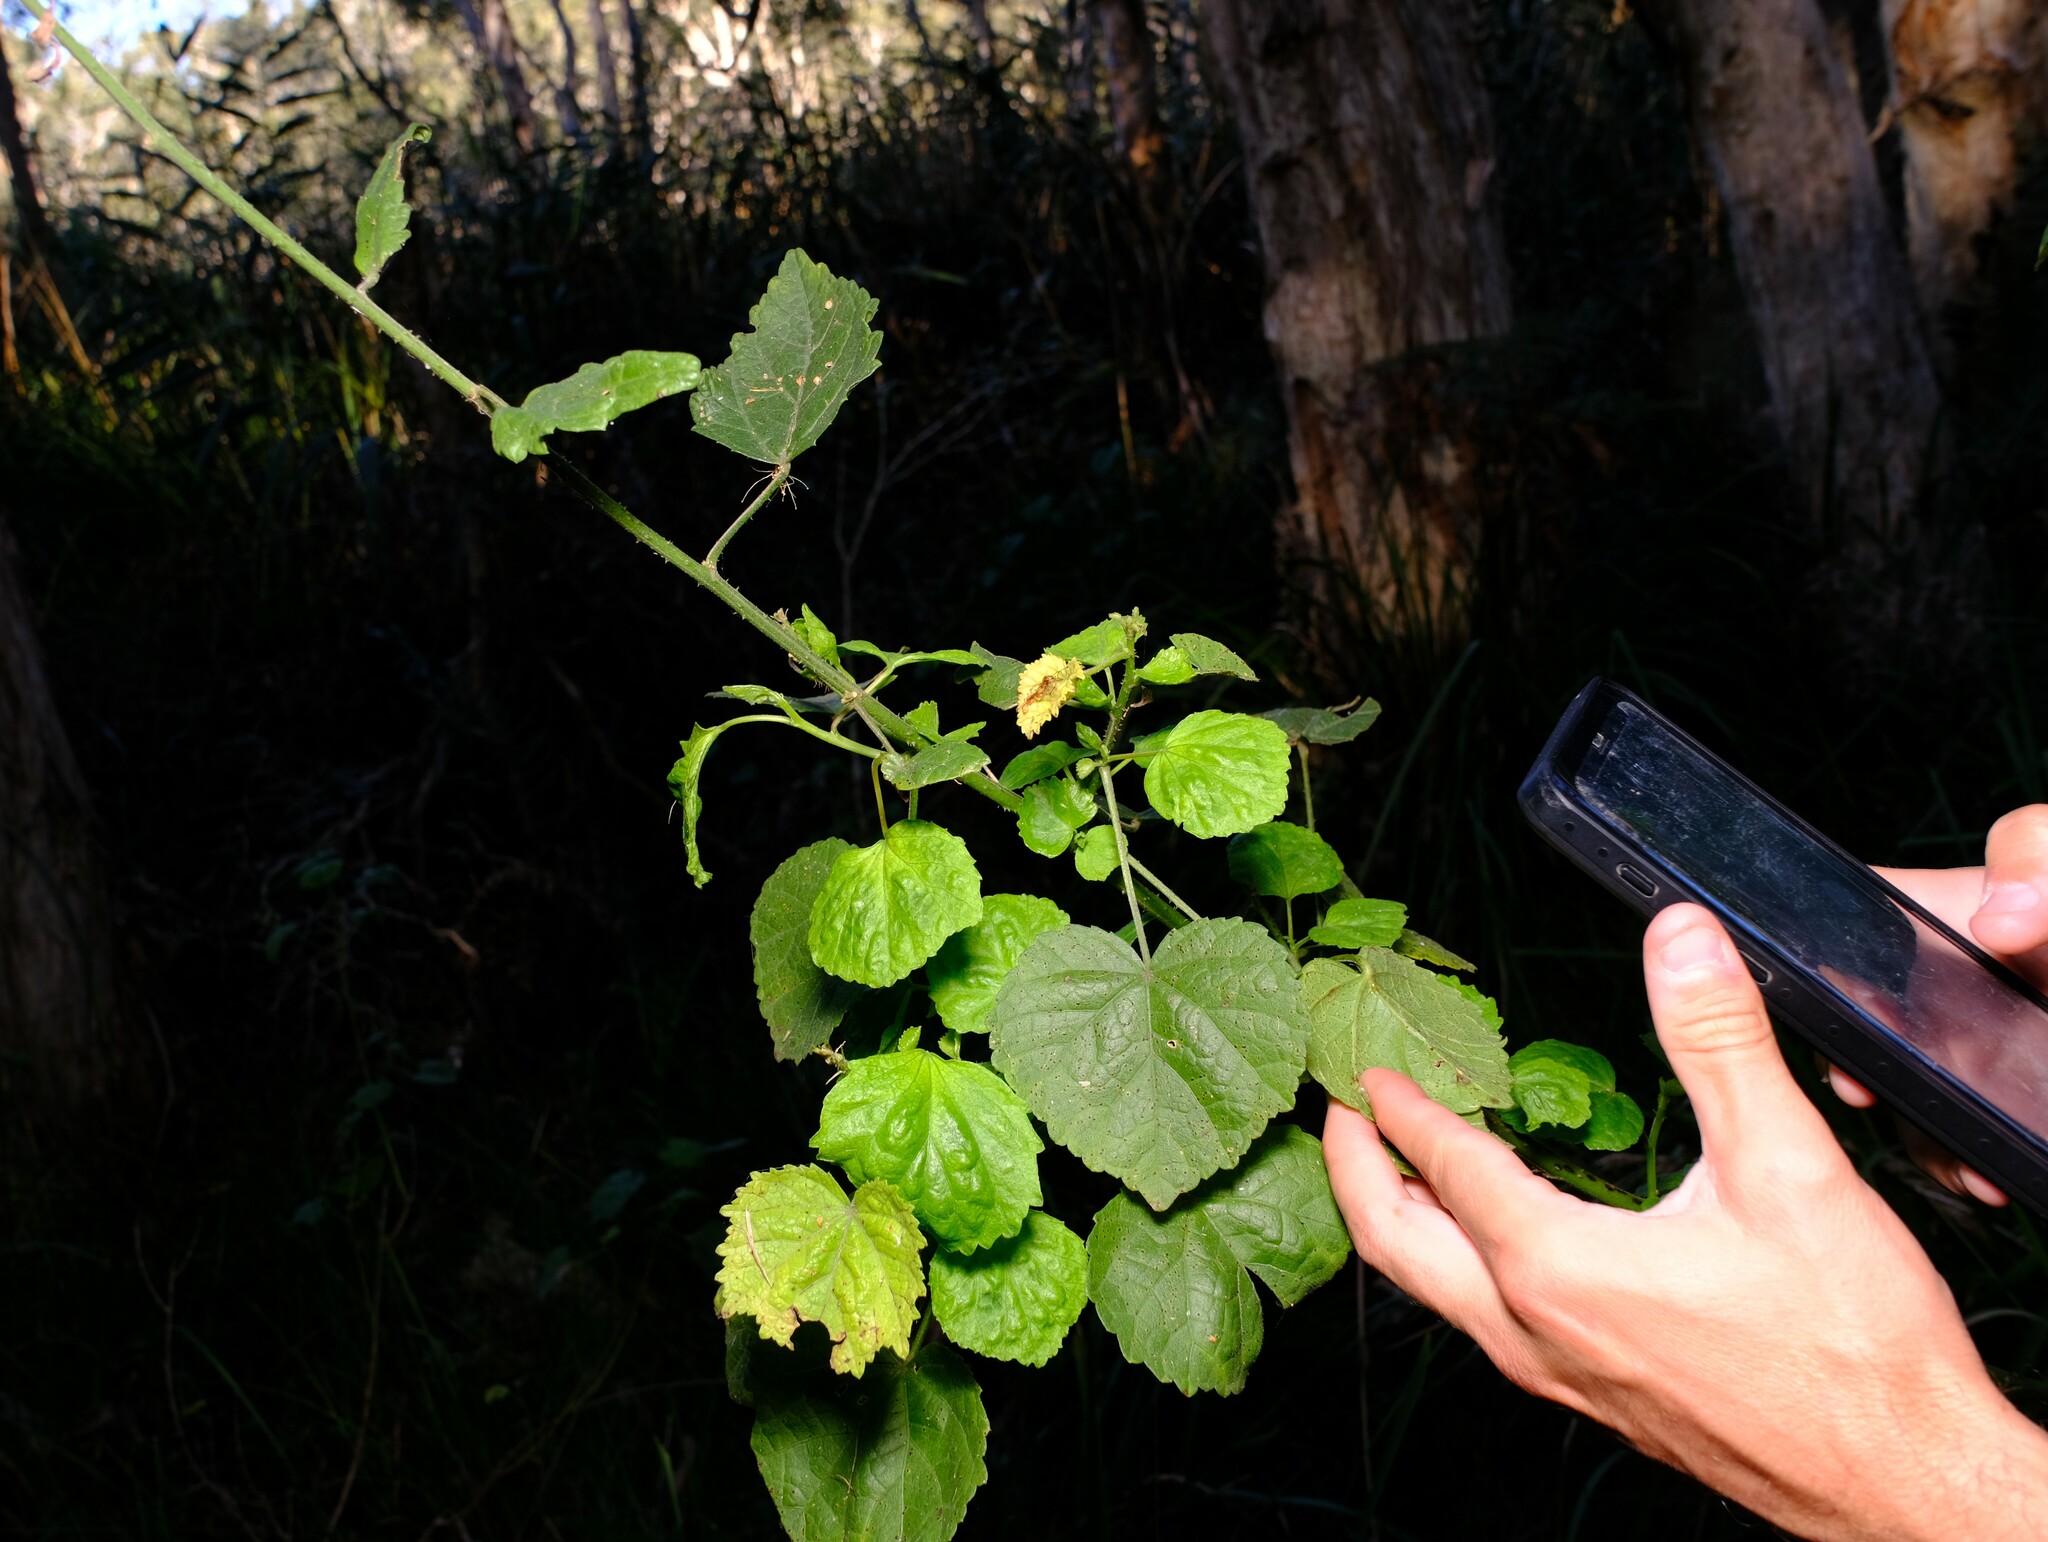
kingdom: Plantae
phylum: Tracheophyta
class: Magnoliopsida
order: Malvales
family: Malvaceae
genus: Hibiscus
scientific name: Hibiscus diversifolius
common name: Cape hibiscus
